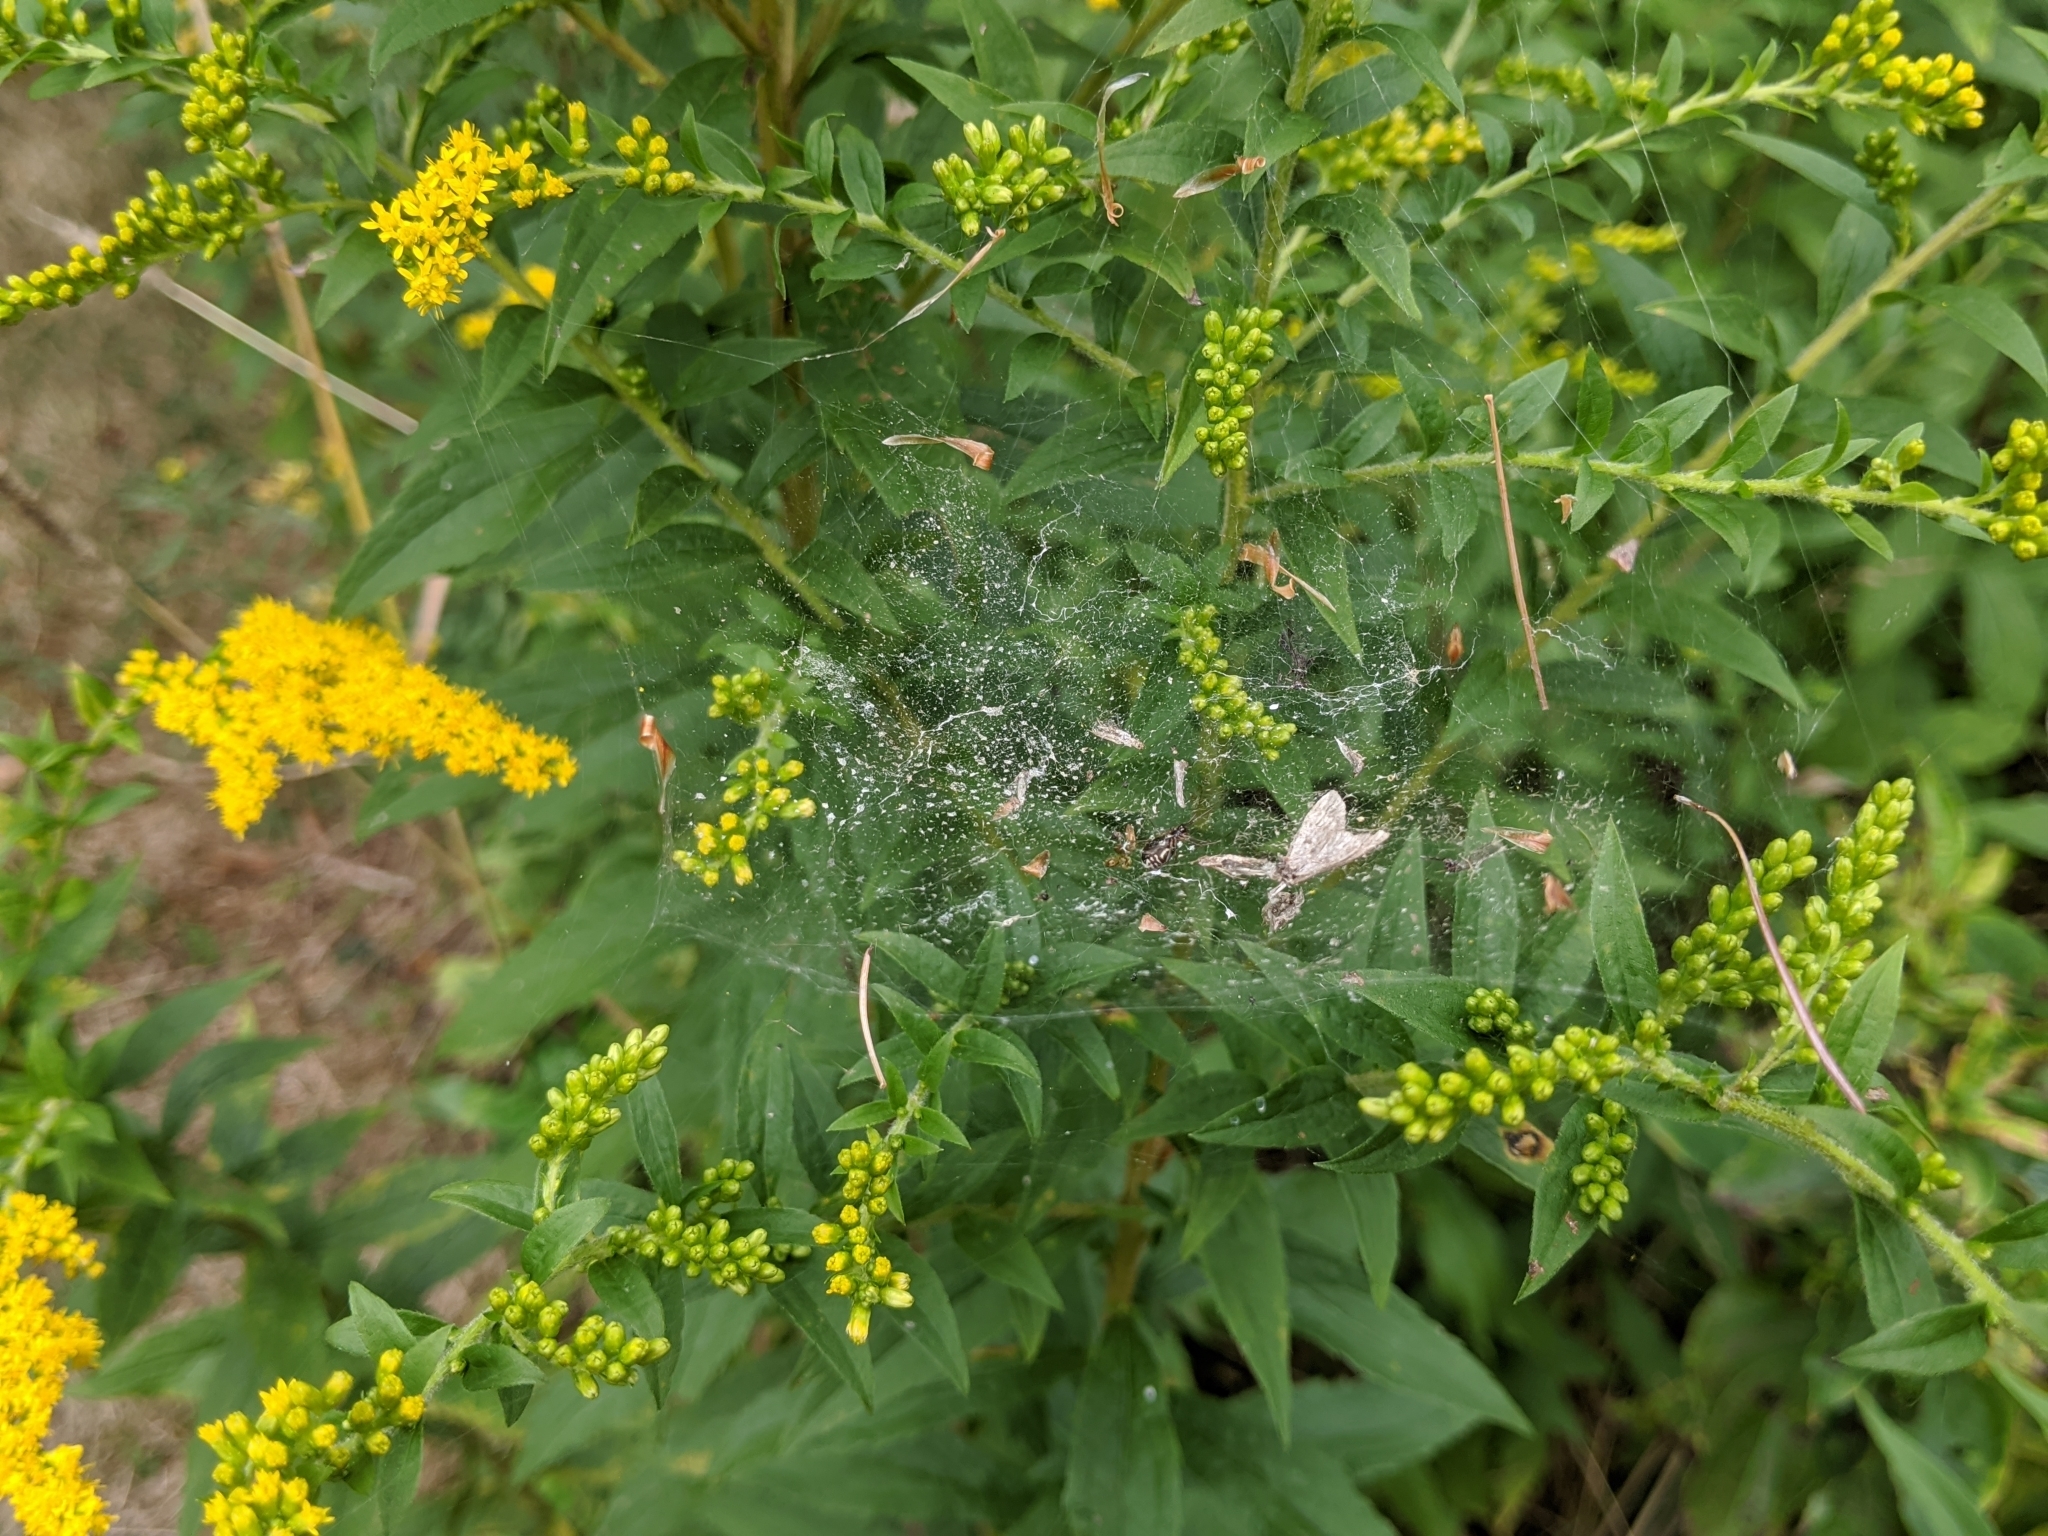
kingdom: Animalia
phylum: Arthropoda
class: Arachnida
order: Araneae
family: Linyphiidae
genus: Frontinella
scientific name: Frontinella pyramitela
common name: Bowl-and-doily spider
